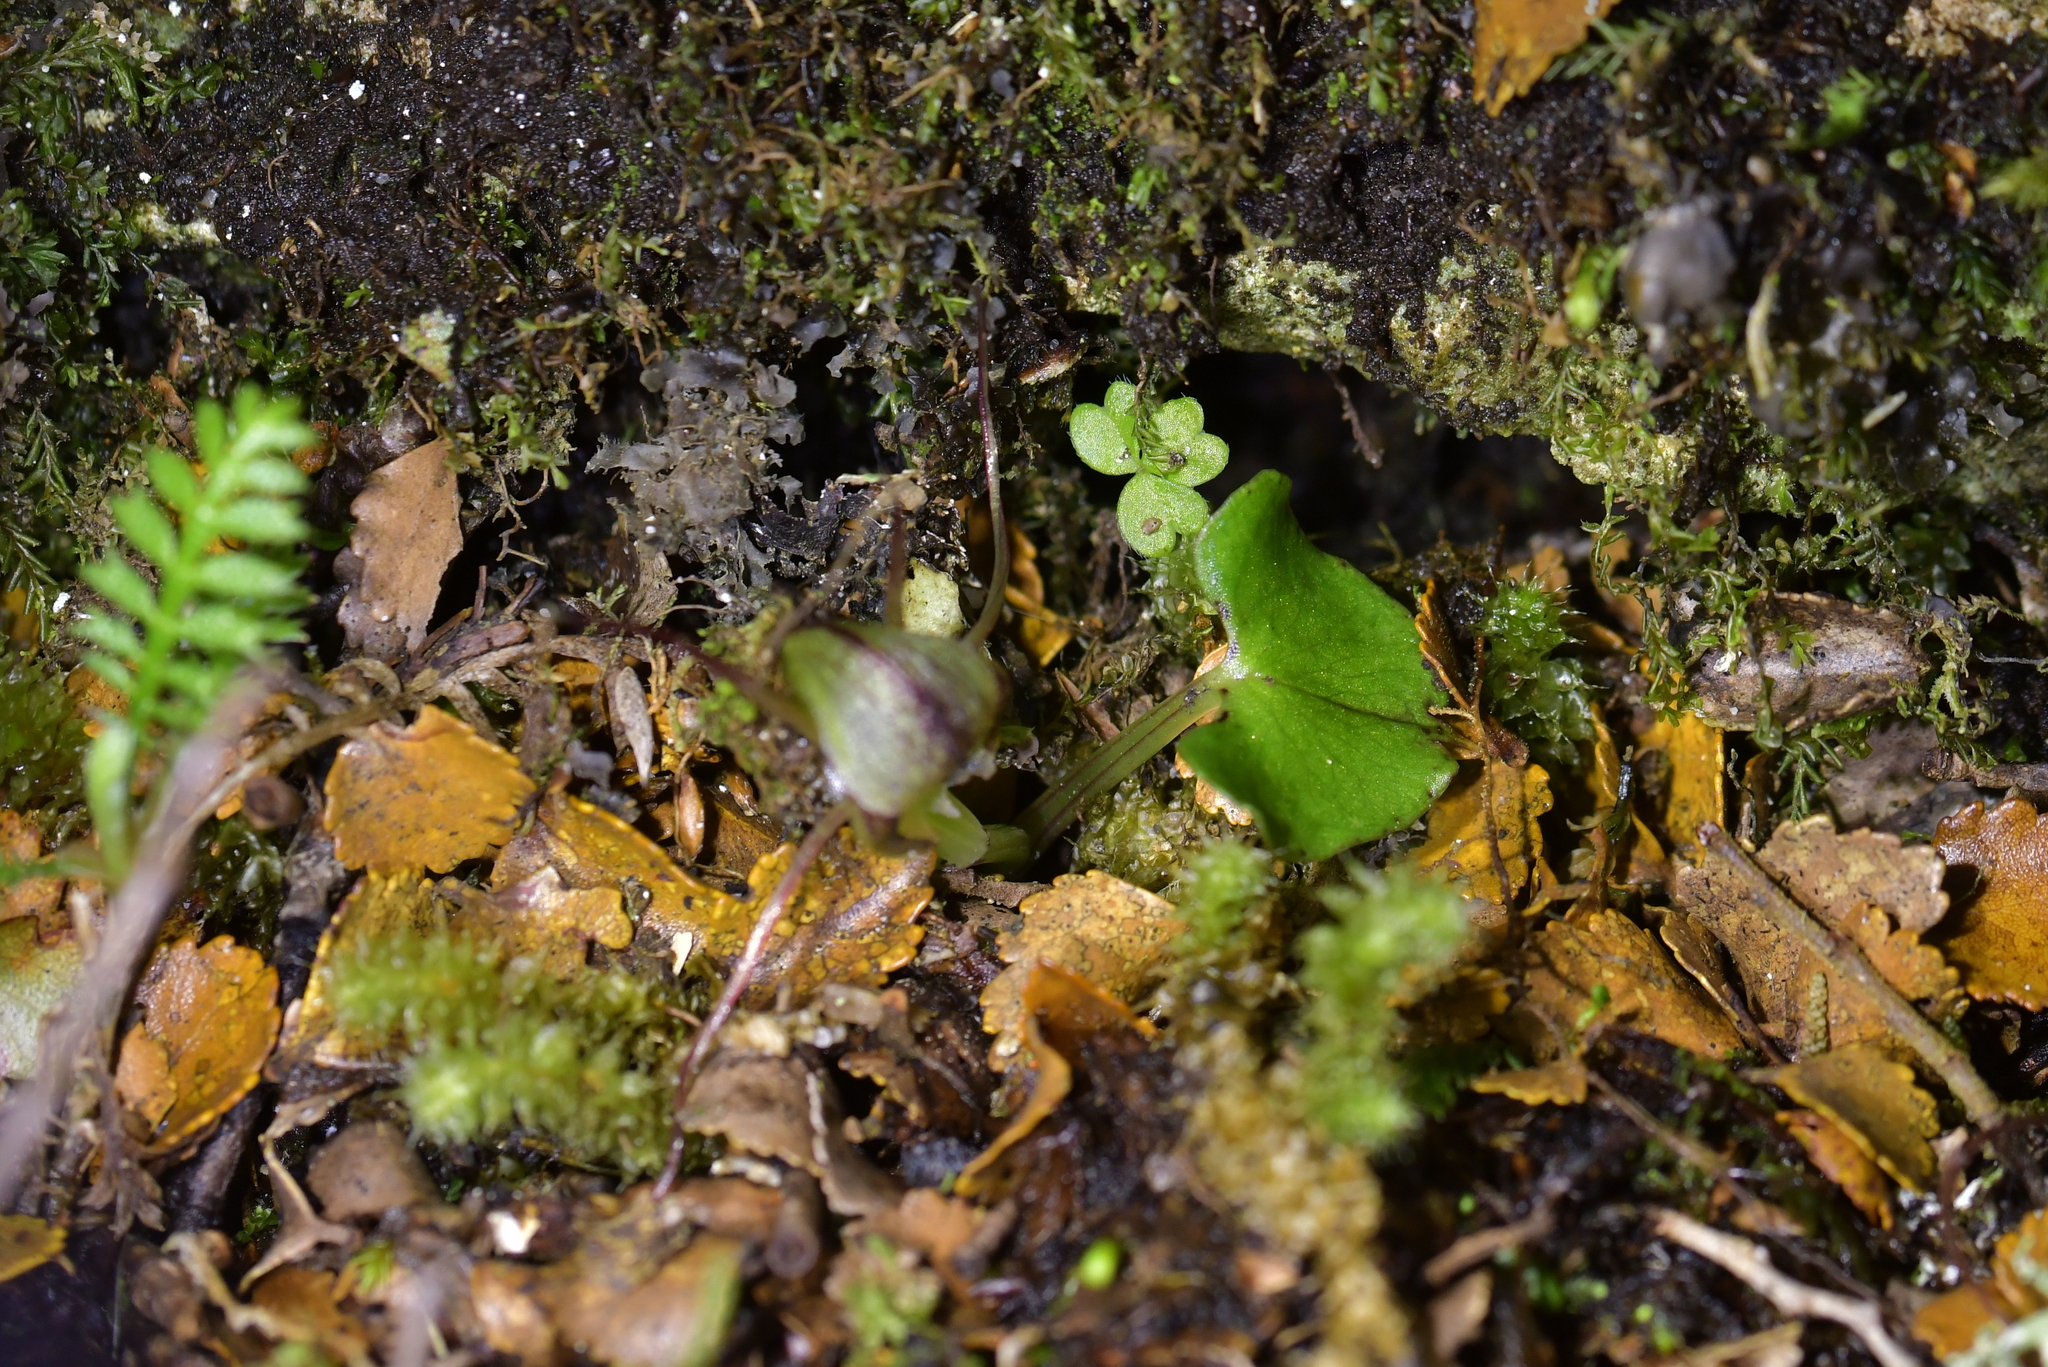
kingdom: Plantae
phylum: Tracheophyta
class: Liliopsida
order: Asparagales
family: Orchidaceae
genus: Corybas
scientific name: Corybas walliae
